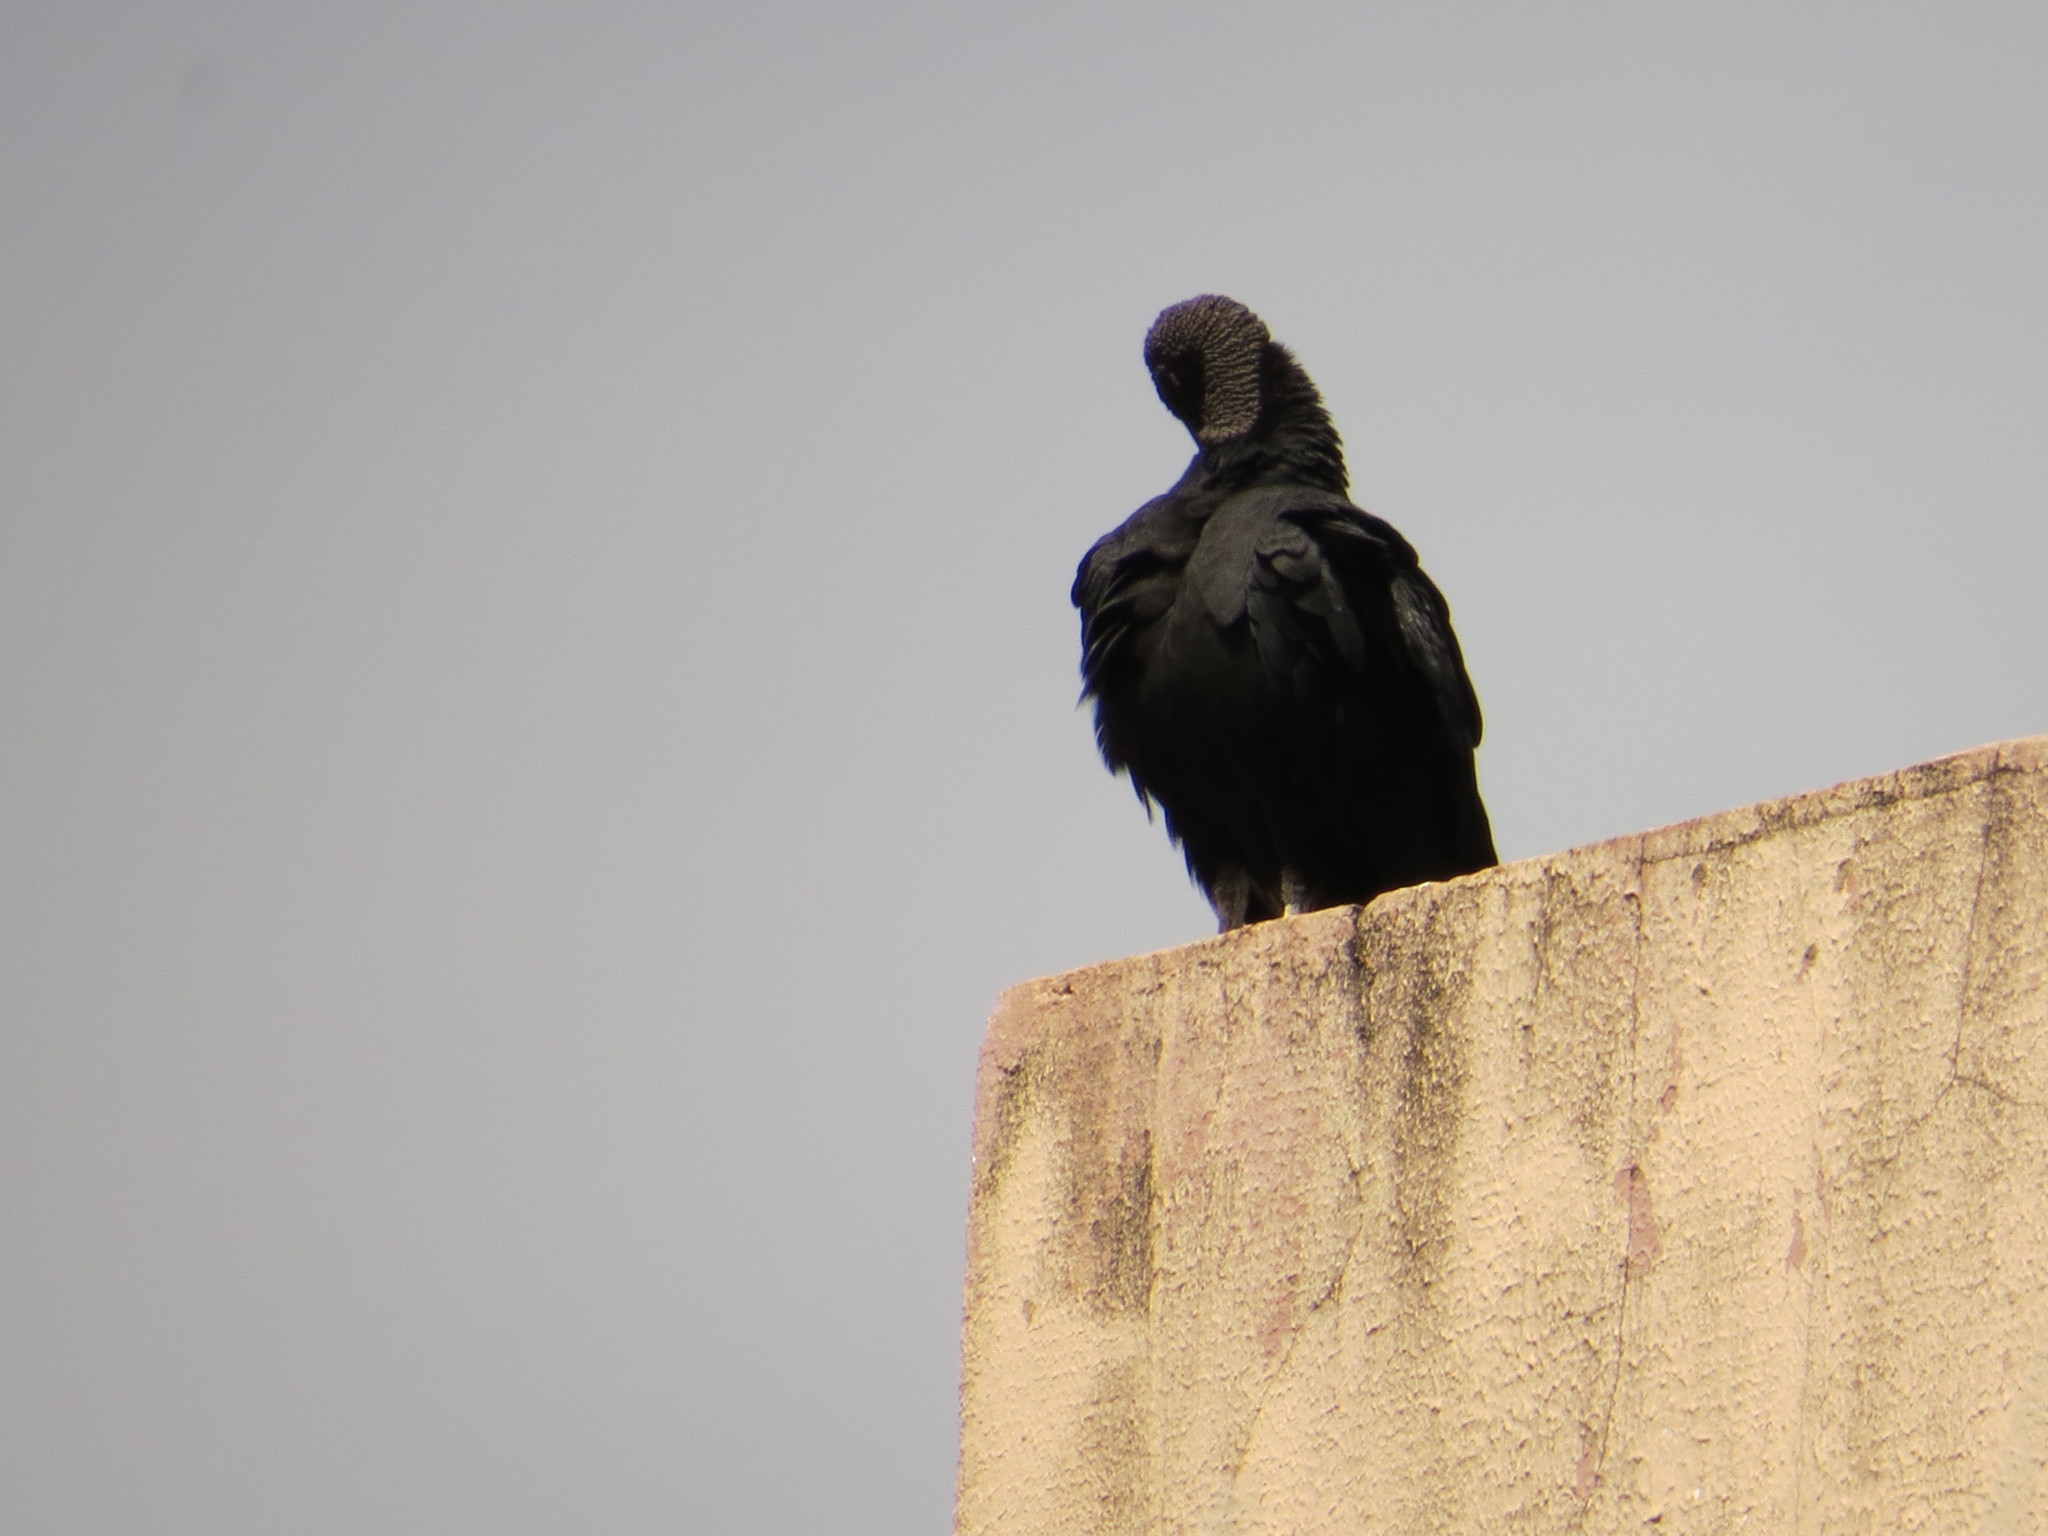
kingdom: Animalia
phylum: Chordata
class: Aves
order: Accipitriformes
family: Cathartidae
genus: Coragyps
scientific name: Coragyps atratus
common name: Black vulture
